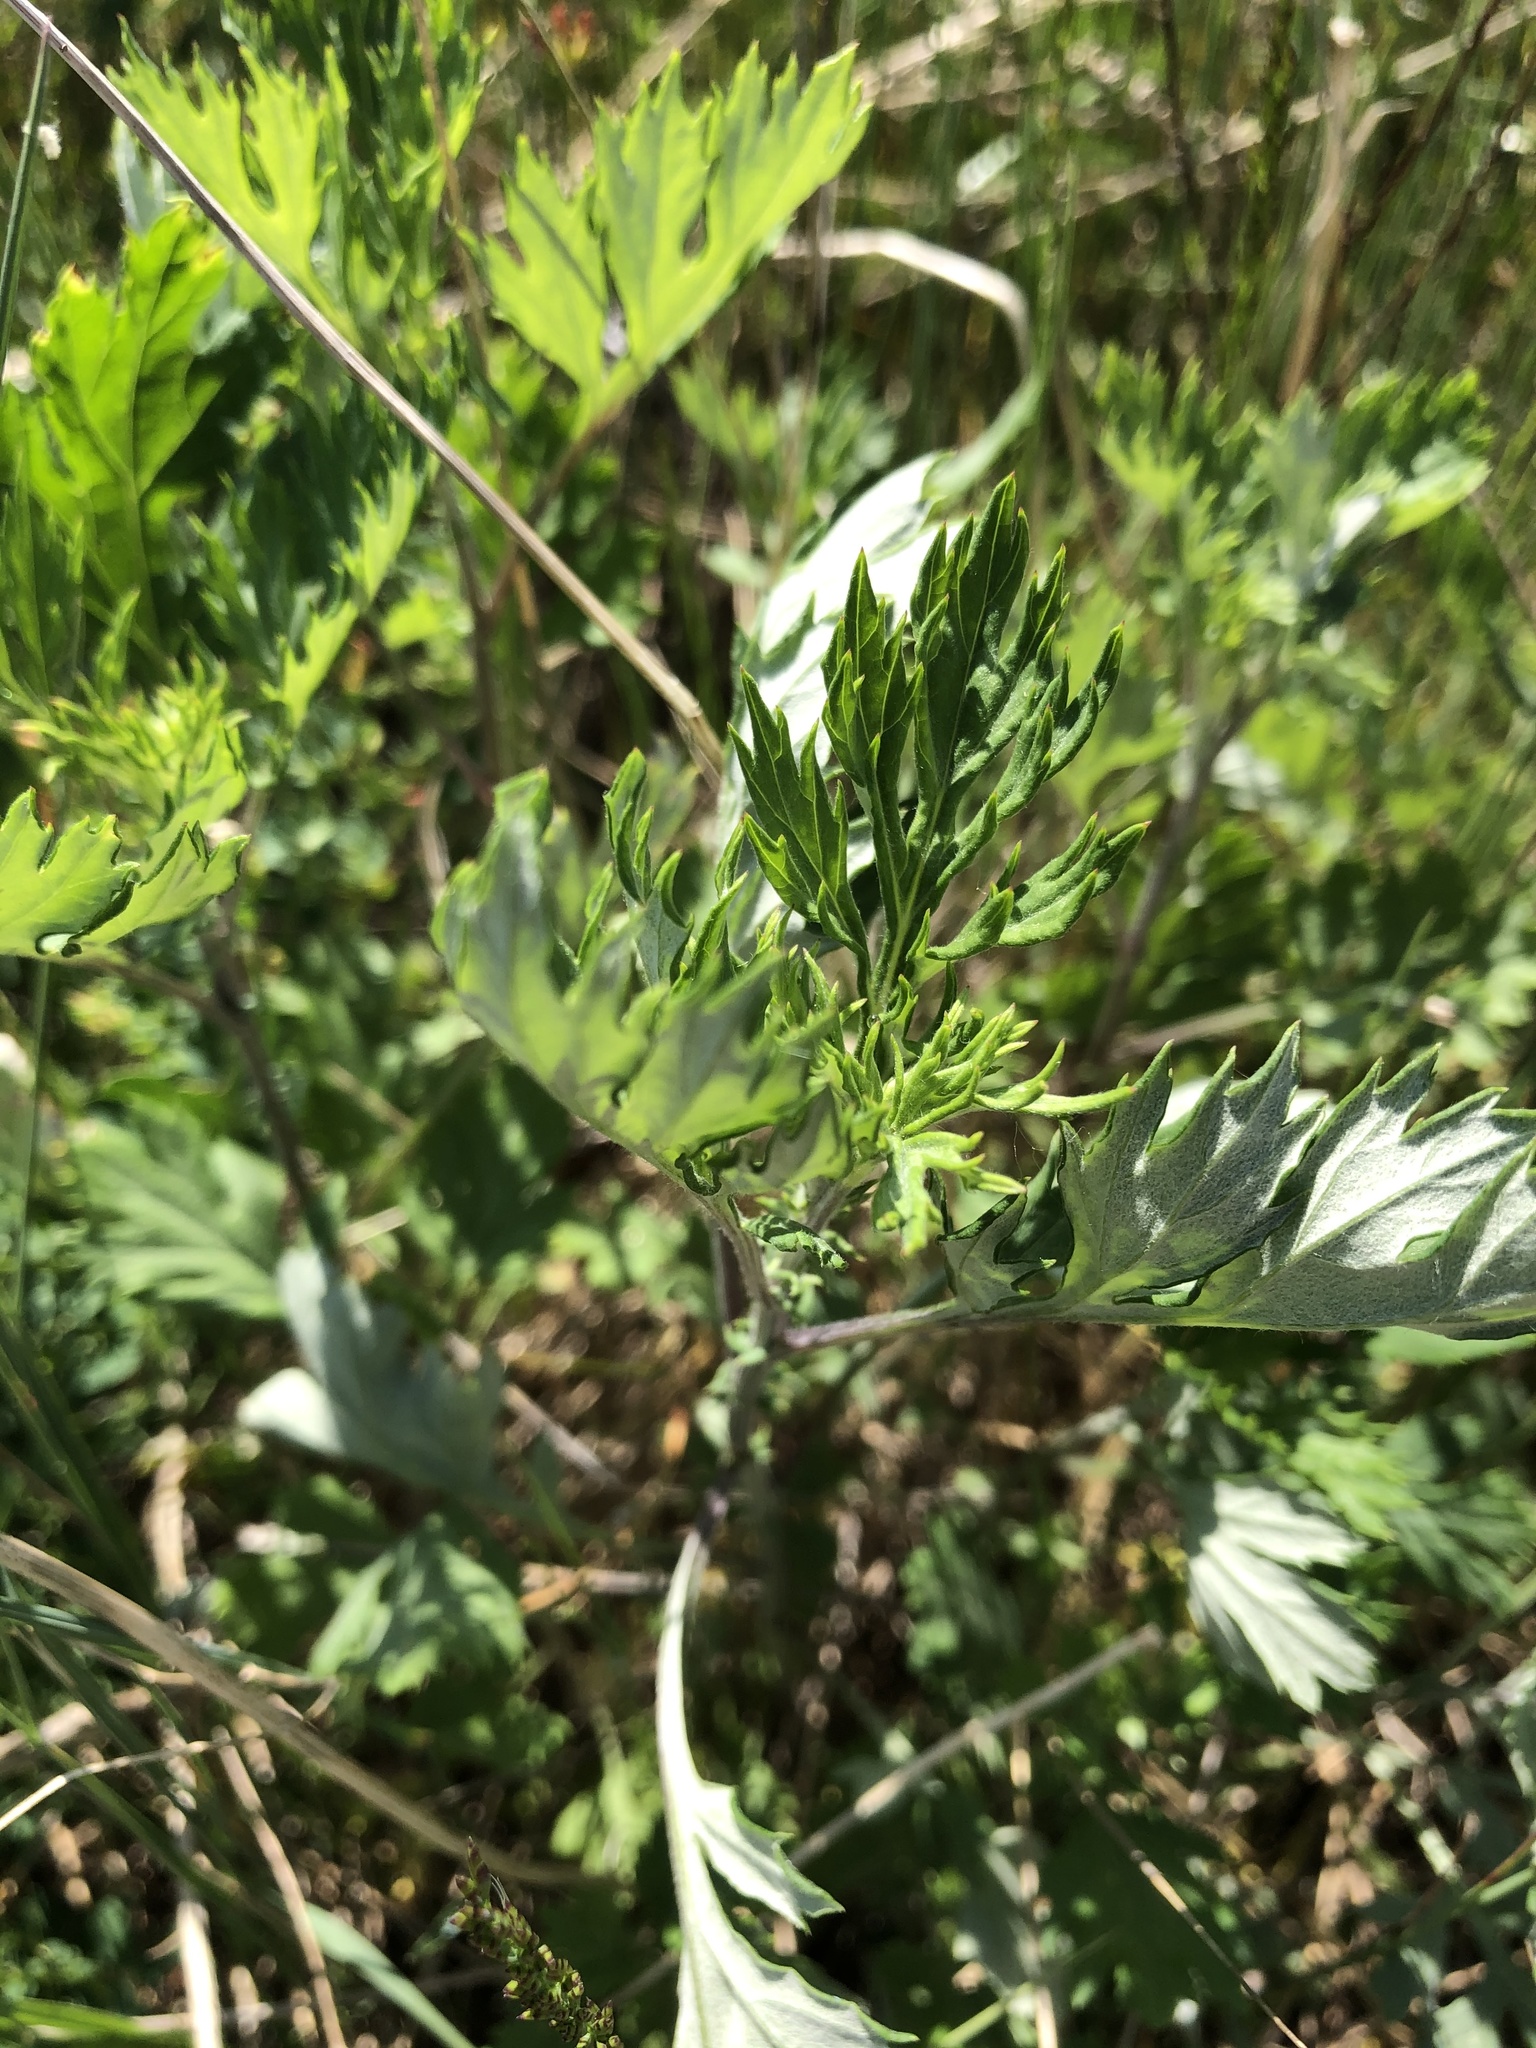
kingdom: Plantae
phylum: Tracheophyta
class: Magnoliopsida
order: Asterales
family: Asteraceae
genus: Artemisia
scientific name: Artemisia vulgaris
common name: Mugwort
